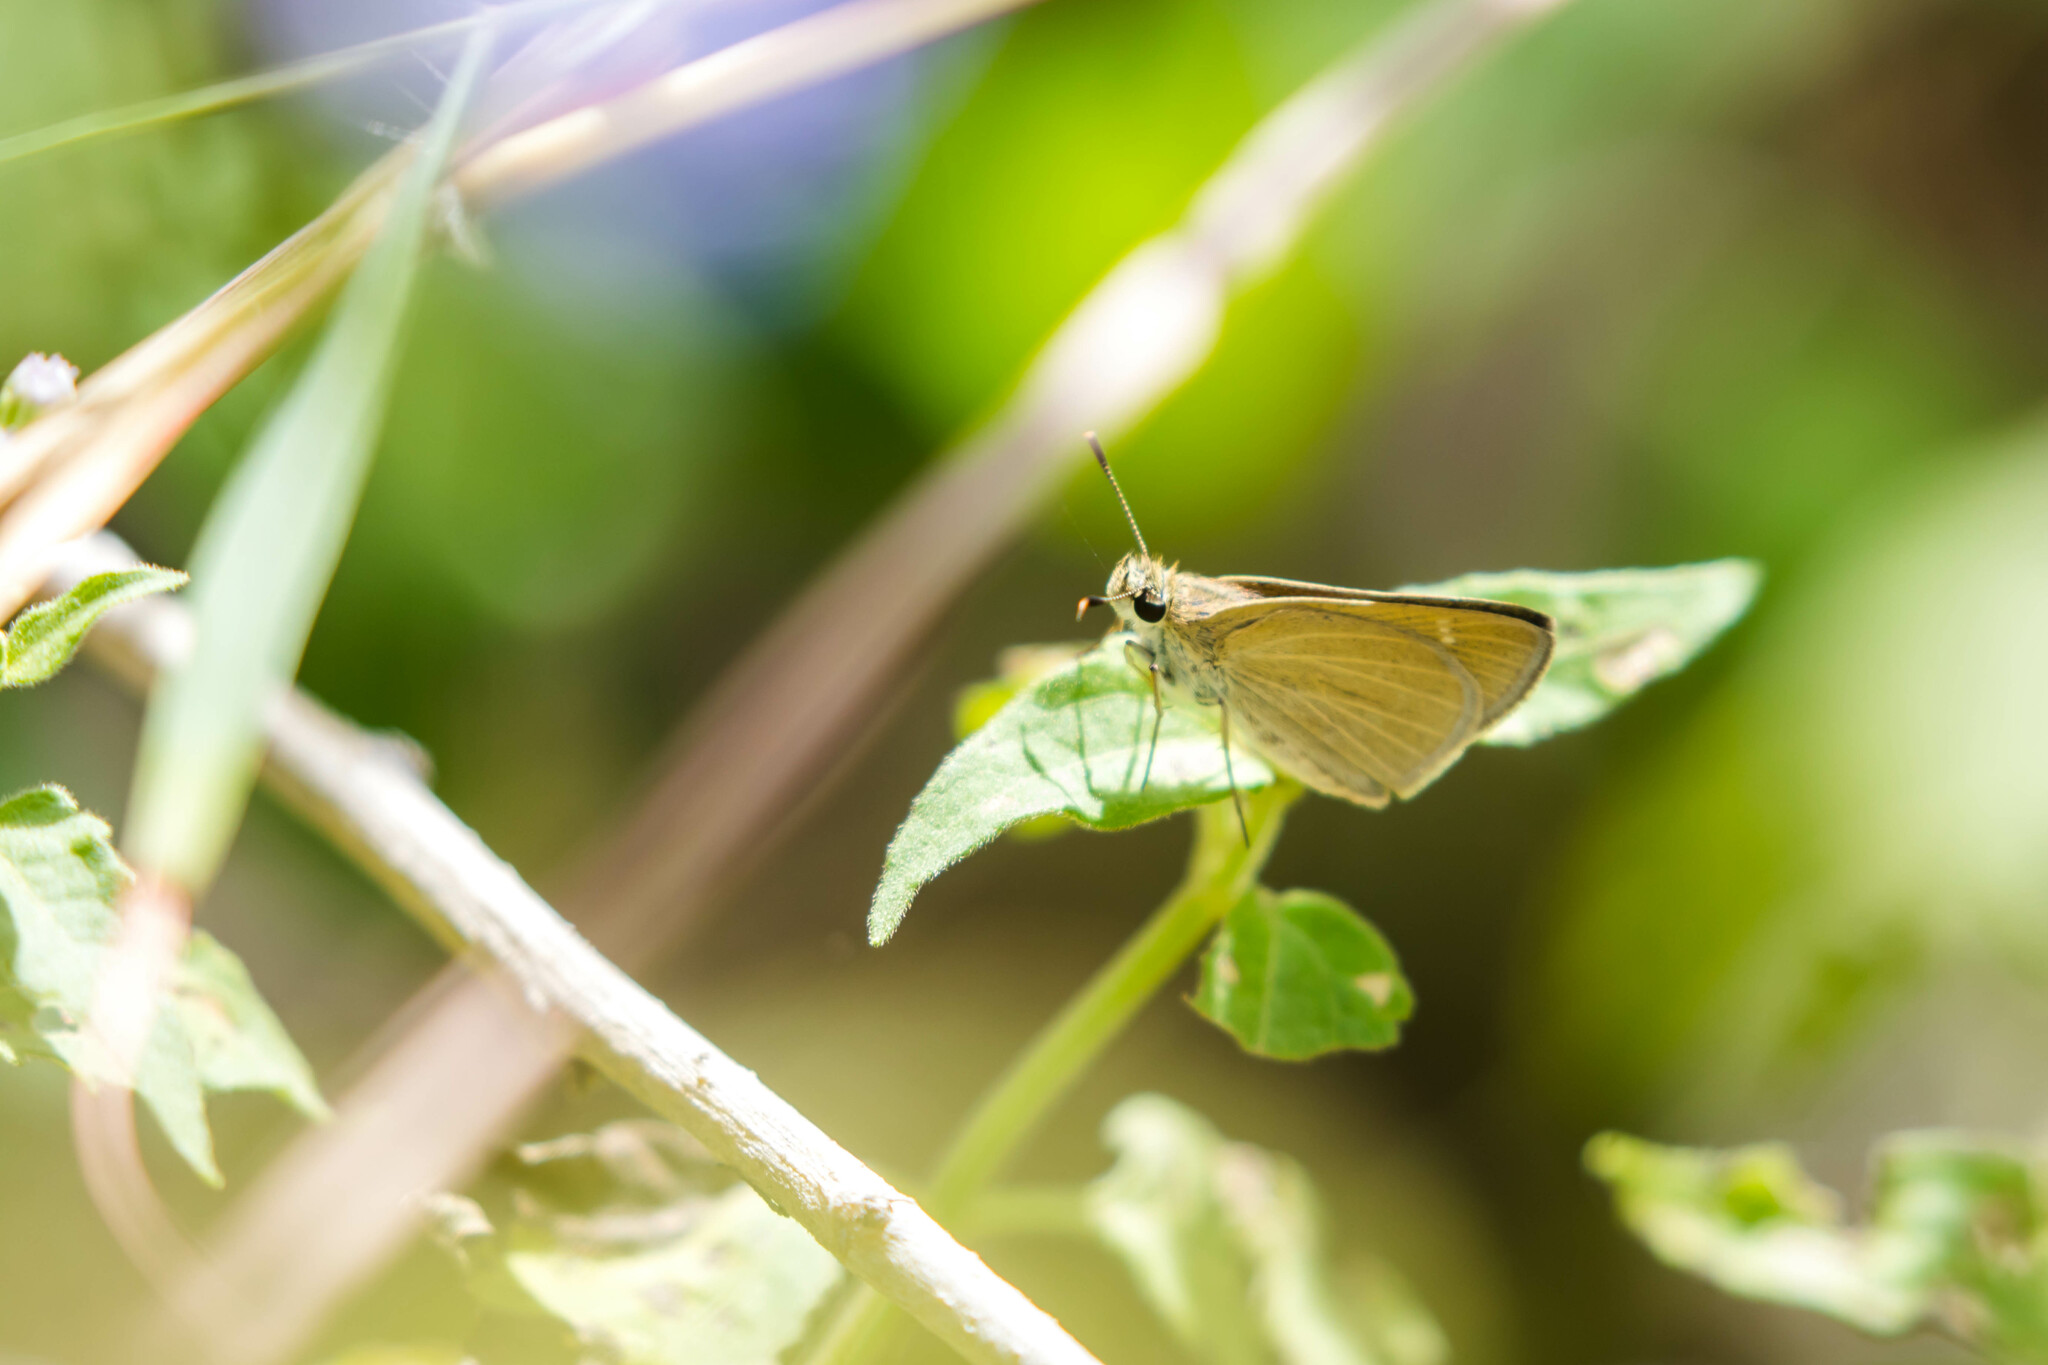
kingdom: Animalia
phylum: Arthropoda
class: Insecta
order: Lepidoptera
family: Hesperiidae
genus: Nastra
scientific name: Nastra julia
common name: Julia's skipper
